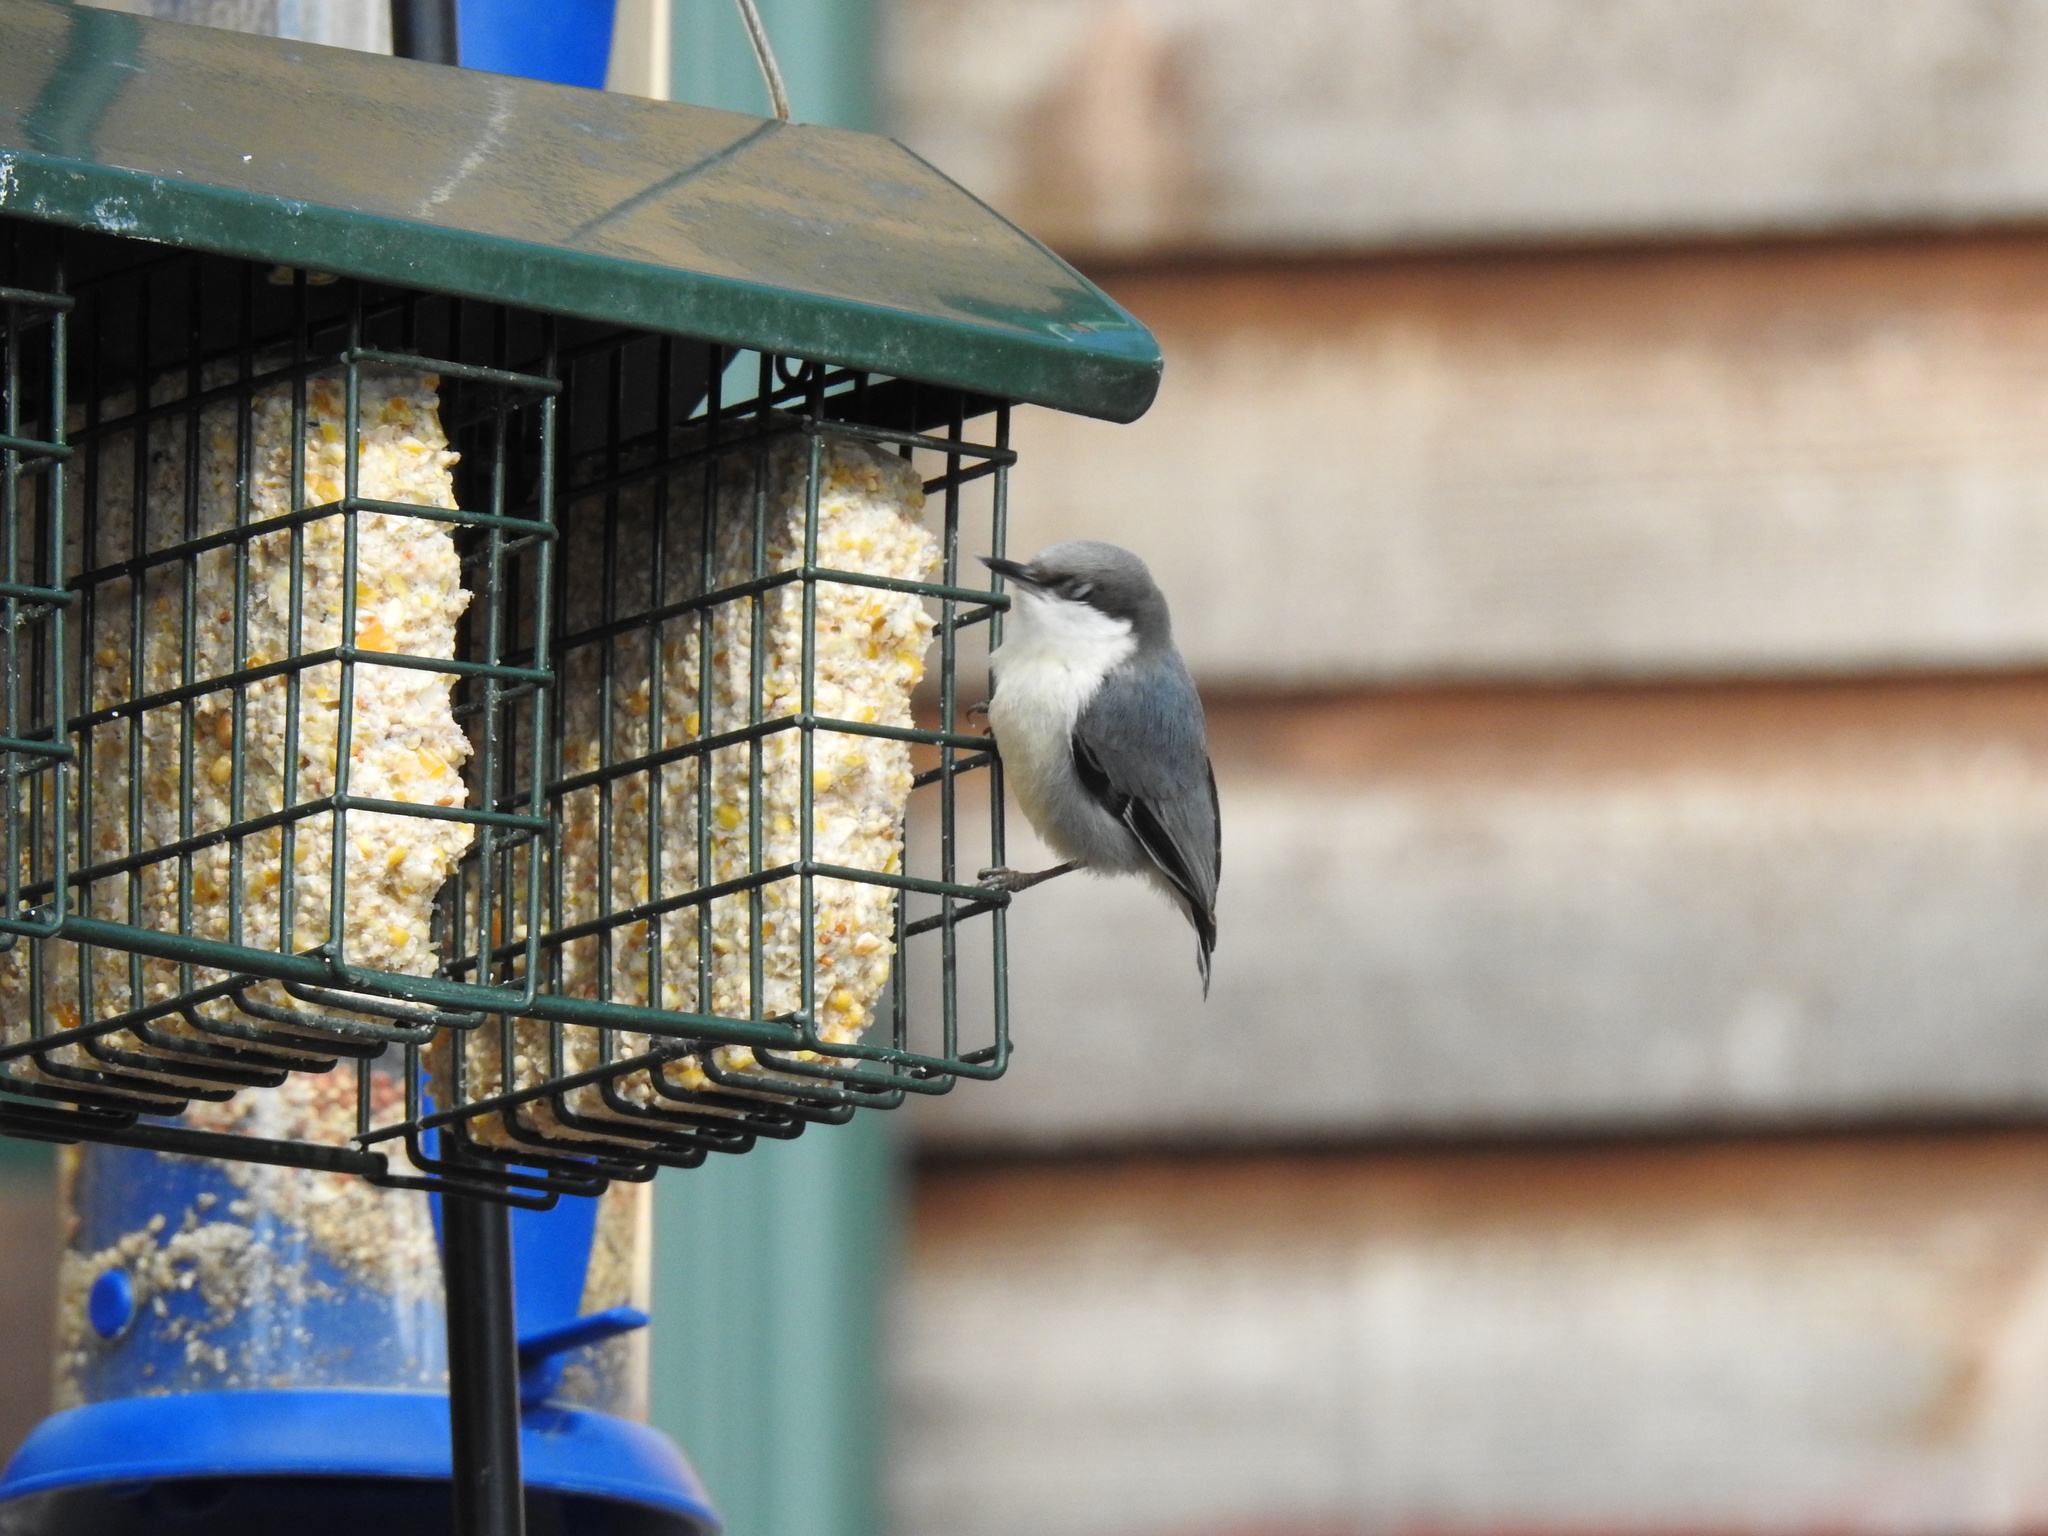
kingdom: Animalia
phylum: Chordata
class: Aves
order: Passeriformes
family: Sittidae
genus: Sitta
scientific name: Sitta pygmaea
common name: Pygmy nuthatch
